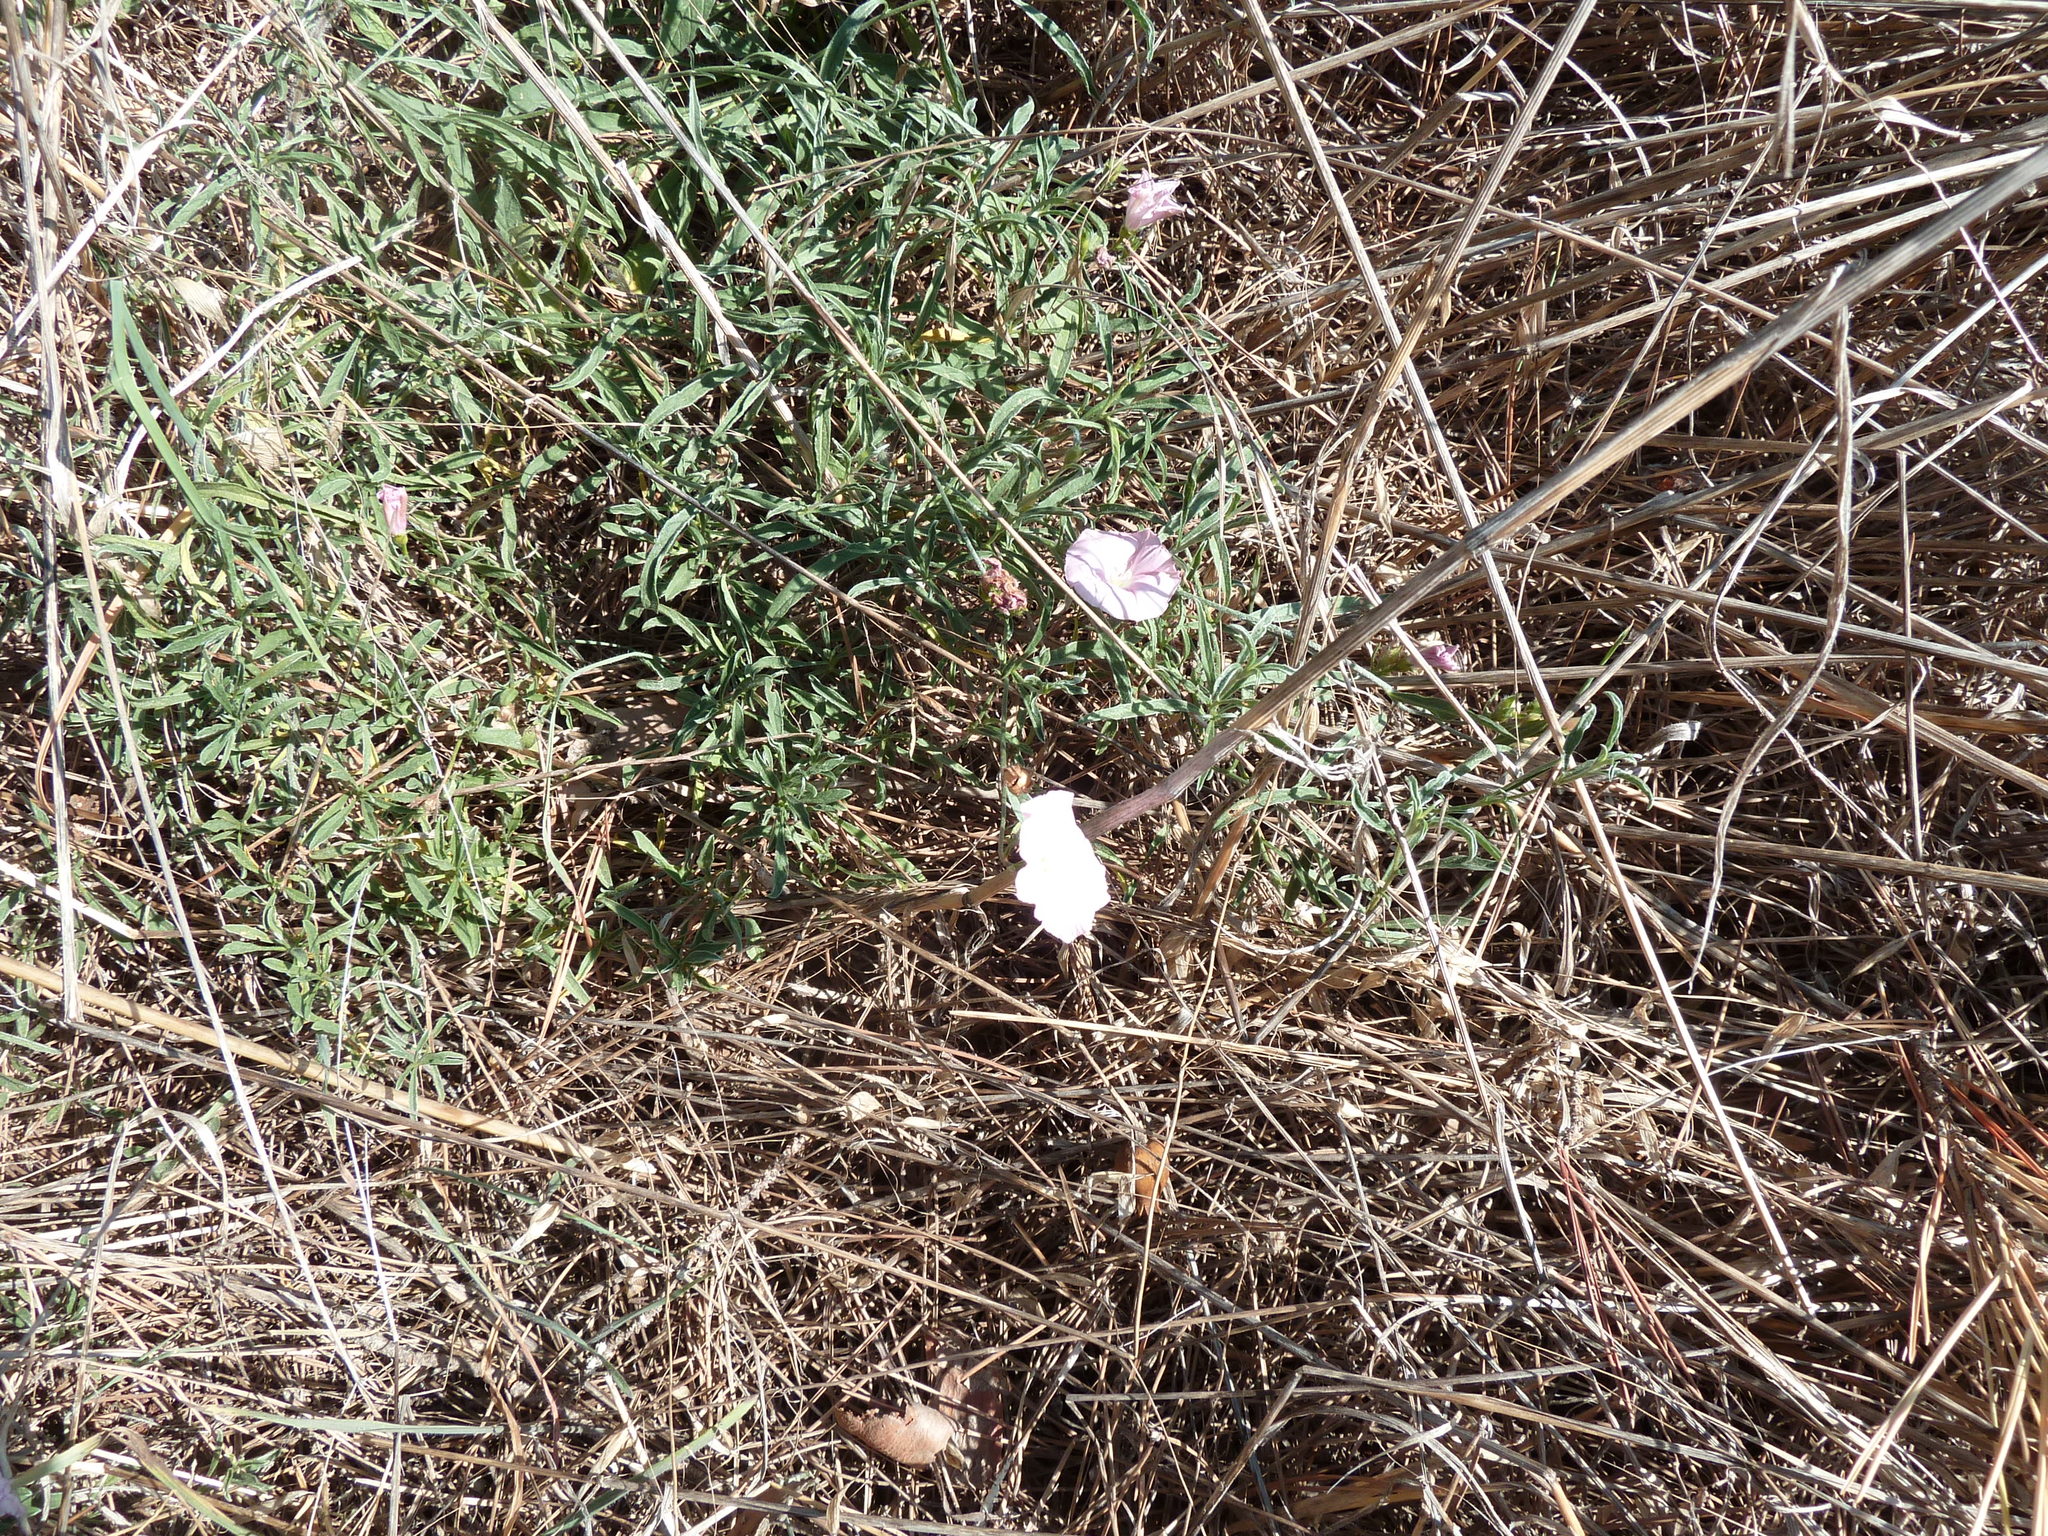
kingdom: Plantae
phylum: Tracheophyta
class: Magnoliopsida
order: Solanales
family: Convolvulaceae
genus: Convolvulus
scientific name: Convolvulus cantabrica
